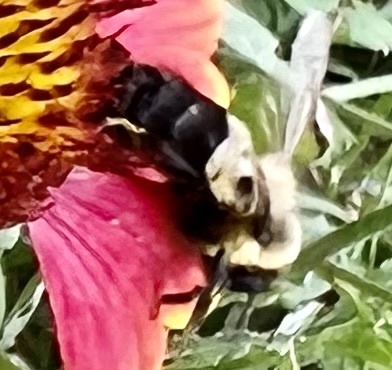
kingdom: Animalia
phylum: Arthropoda
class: Insecta
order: Hymenoptera
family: Apidae
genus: Bombus
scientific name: Bombus impatiens
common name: Common eastern bumble bee
